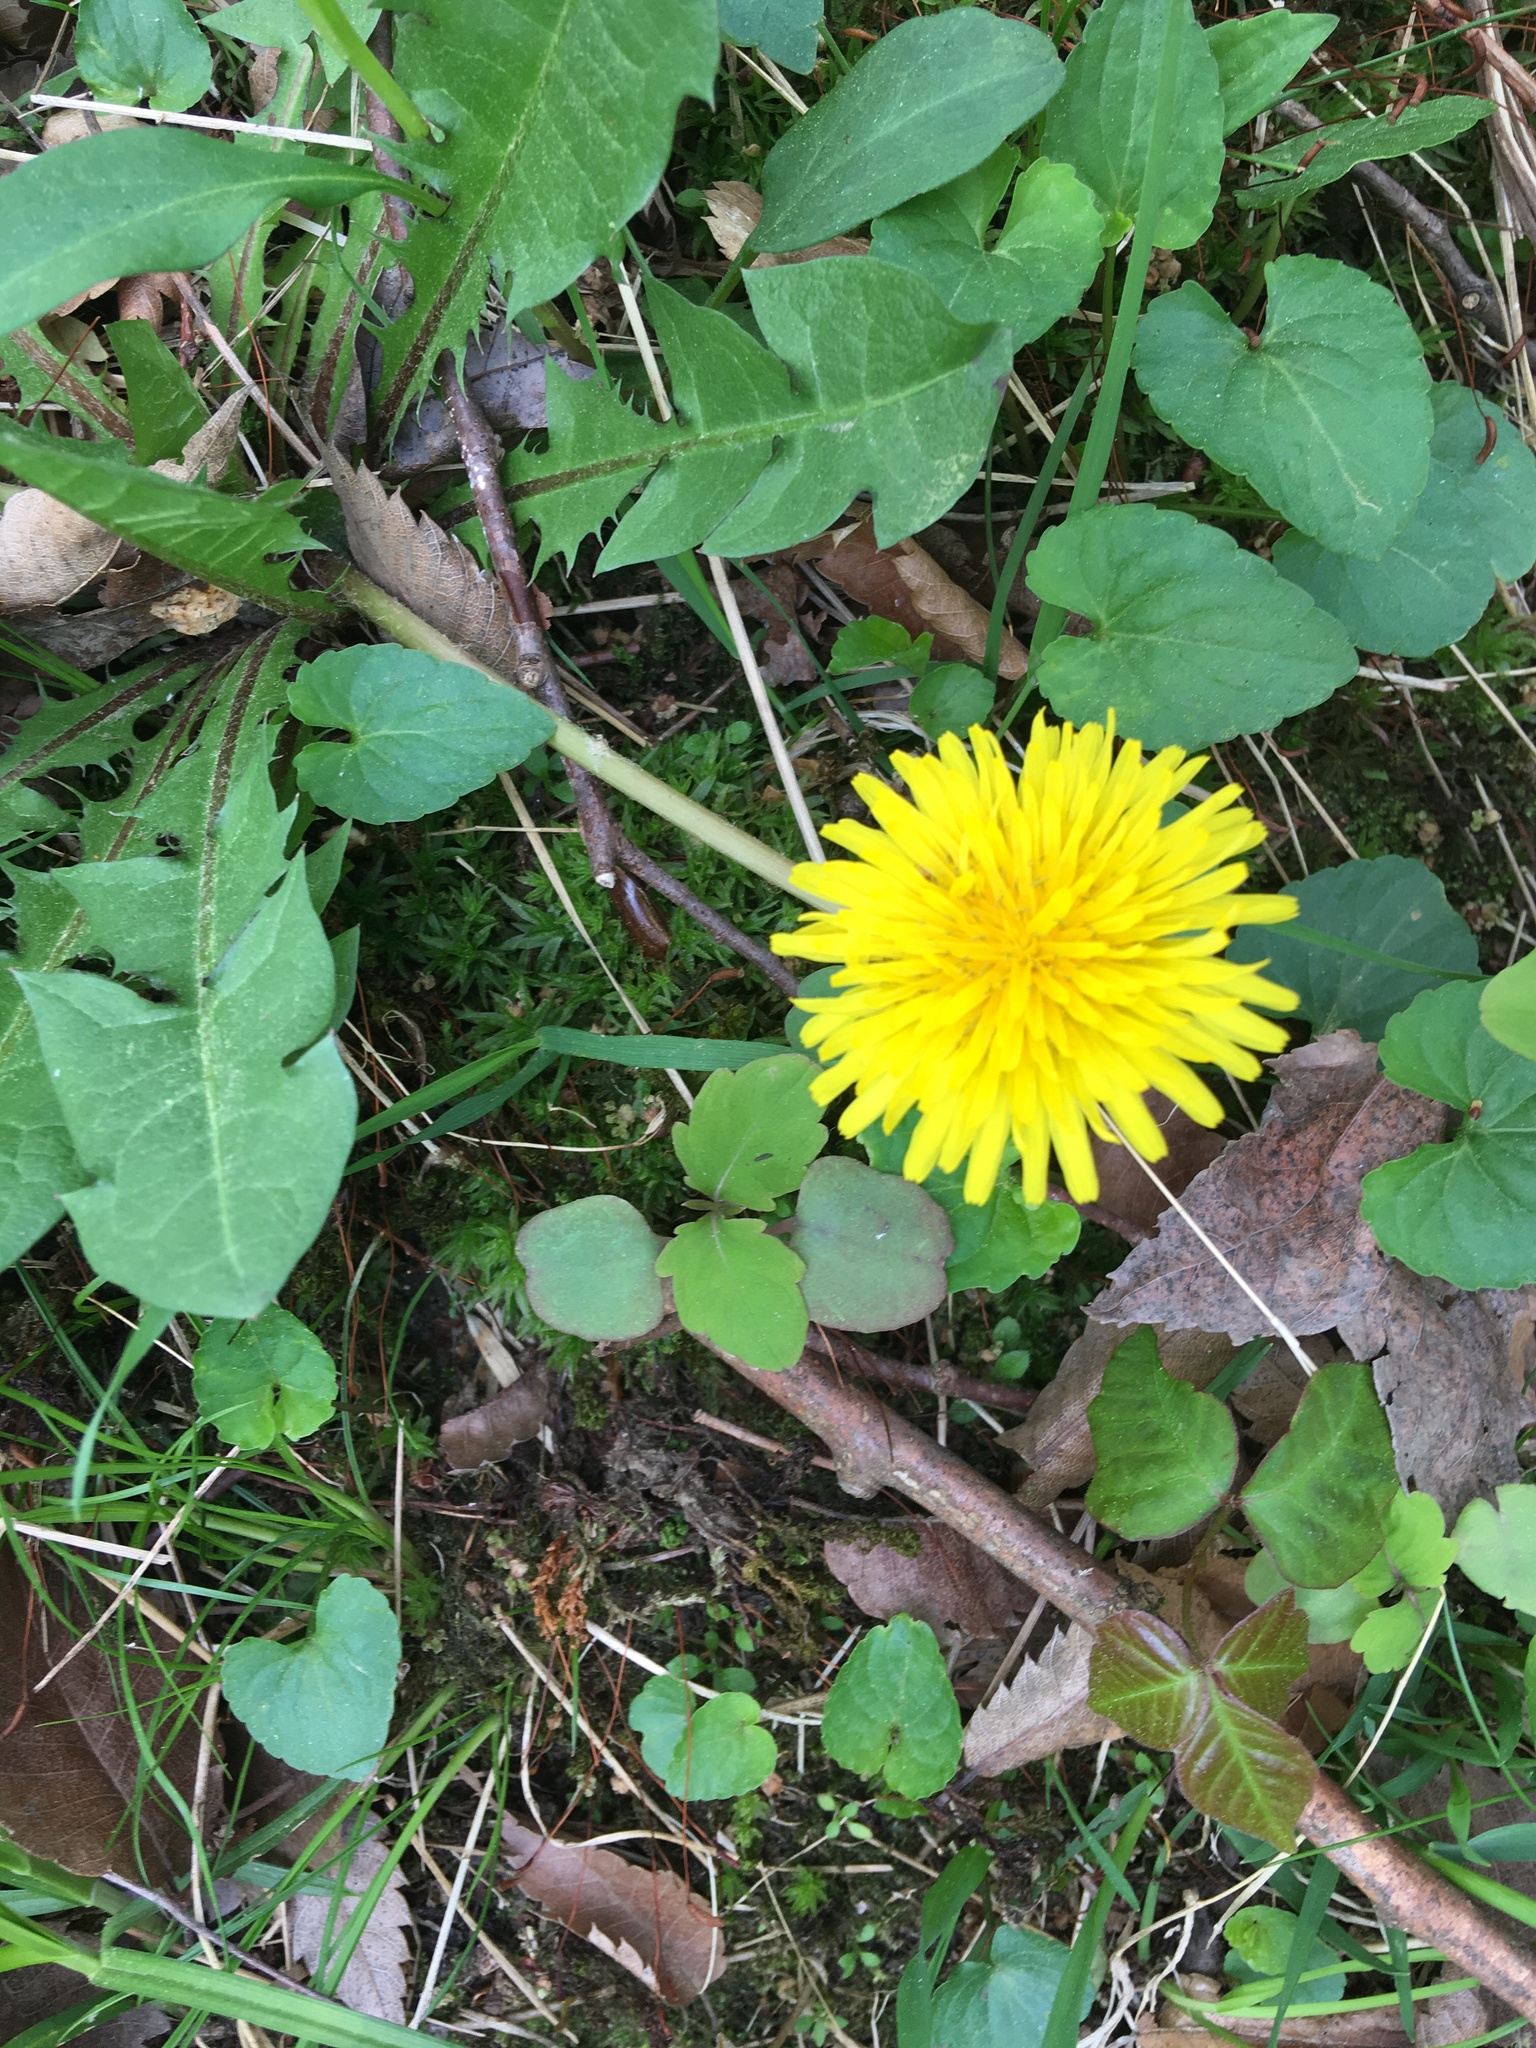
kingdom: Plantae
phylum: Tracheophyta
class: Magnoliopsida
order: Asterales
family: Asteraceae
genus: Taraxacum
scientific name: Taraxacum officinale
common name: Common dandelion
